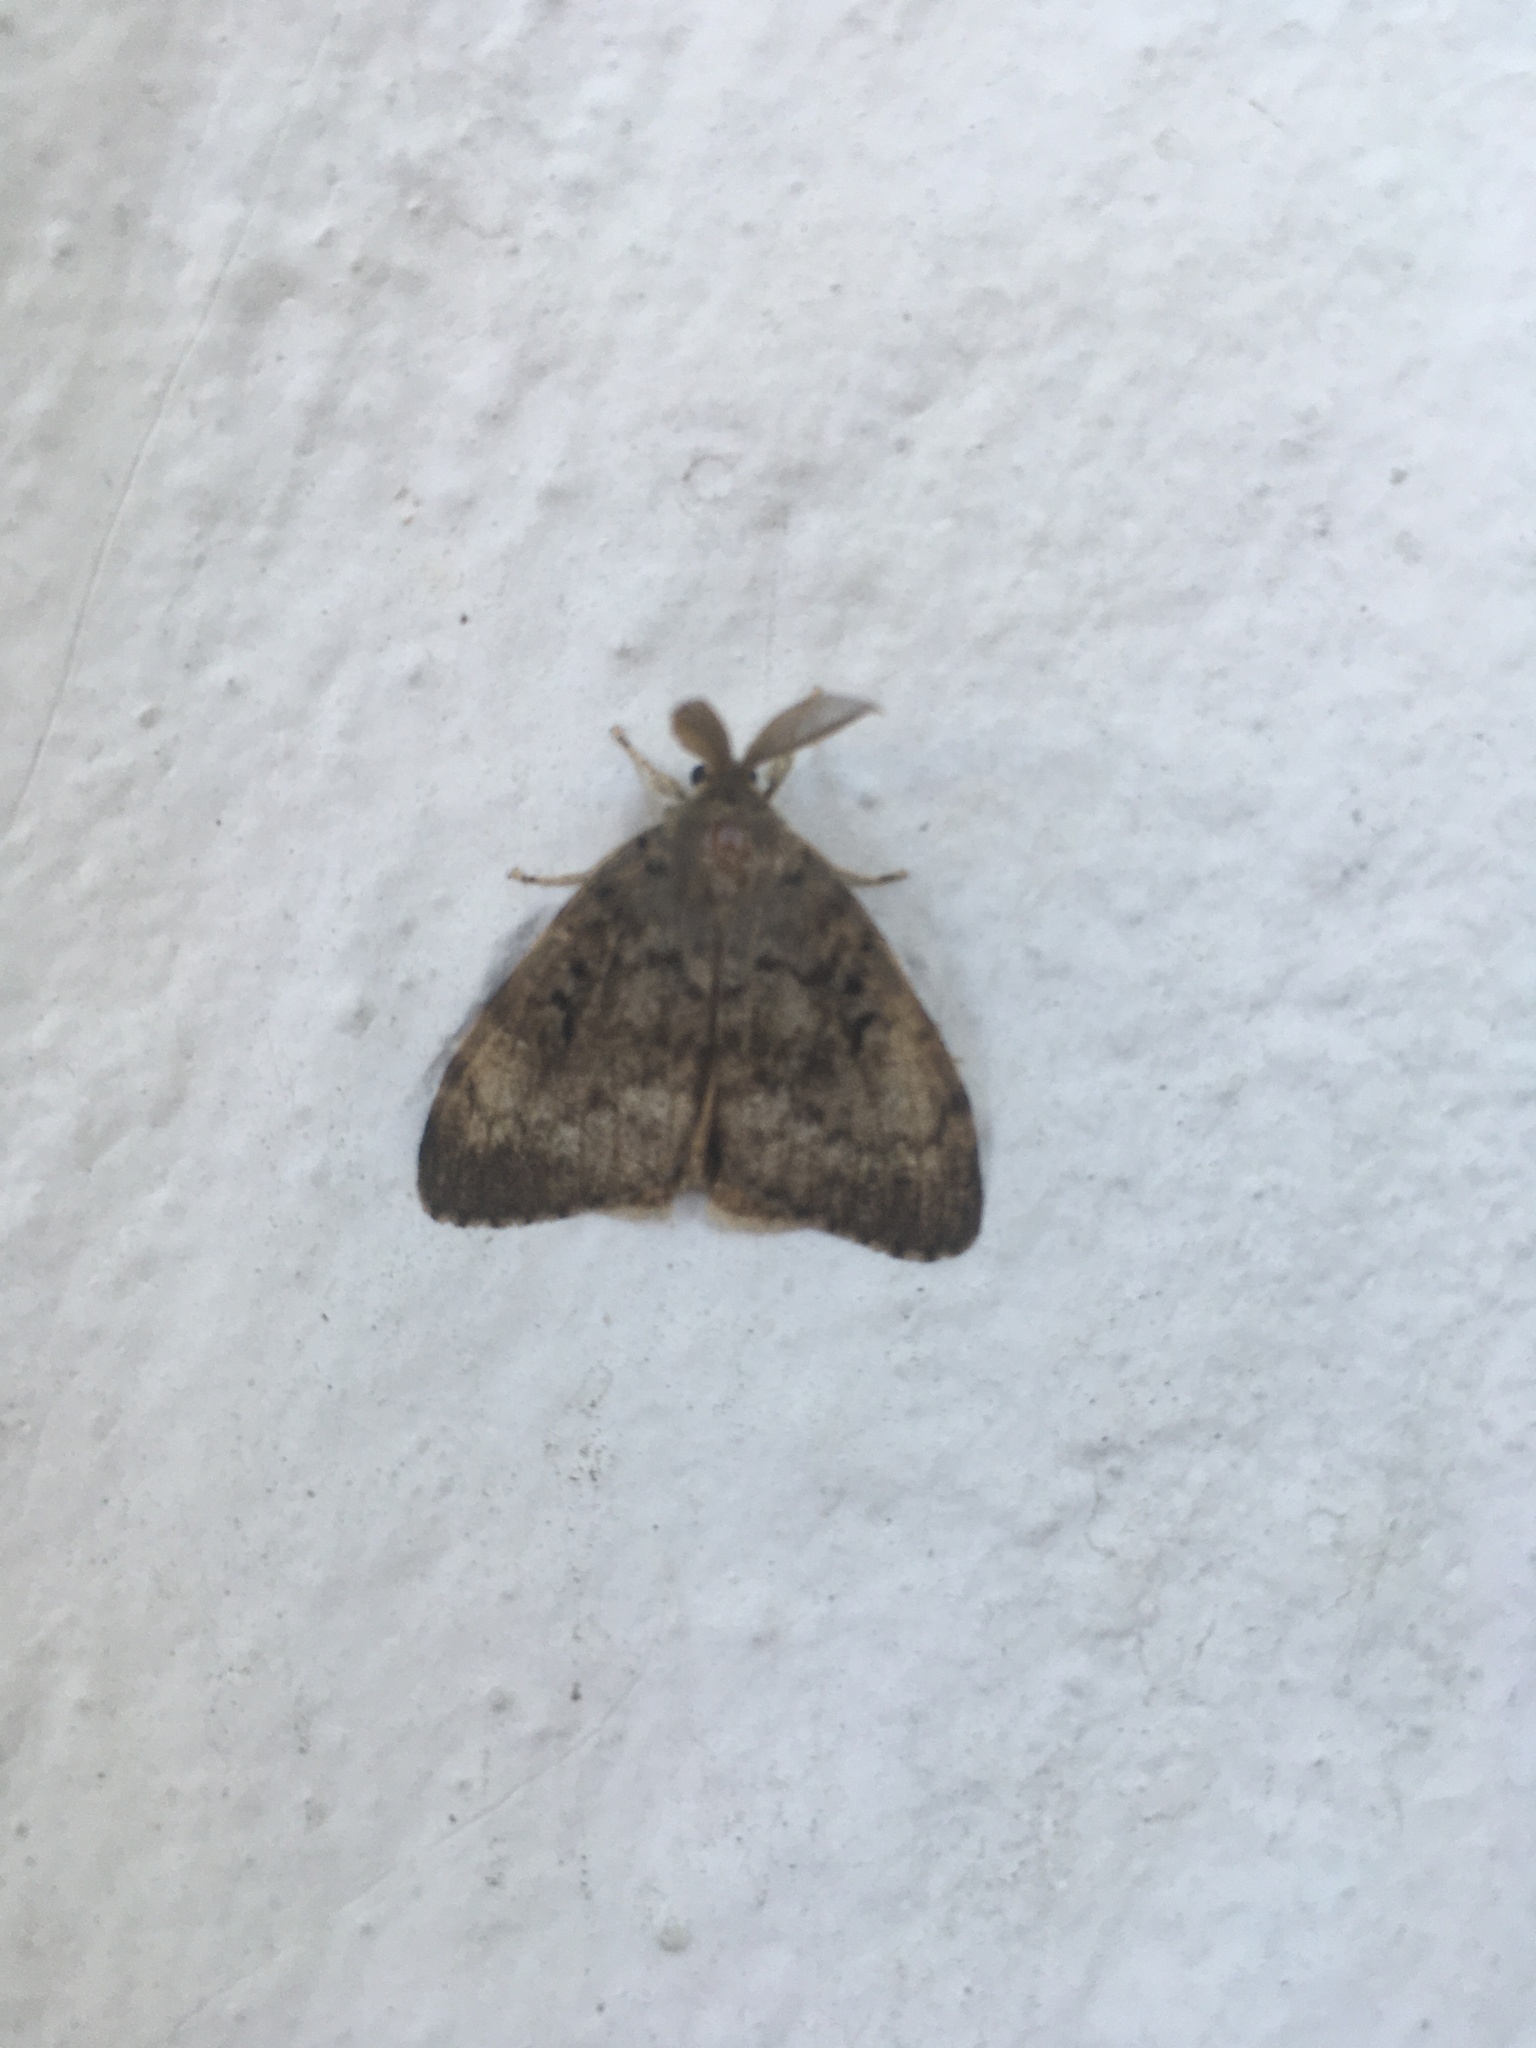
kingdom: Animalia
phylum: Arthropoda
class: Insecta
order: Lepidoptera
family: Erebidae
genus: Lymantria
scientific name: Lymantria dispar
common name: Gypsy moth
